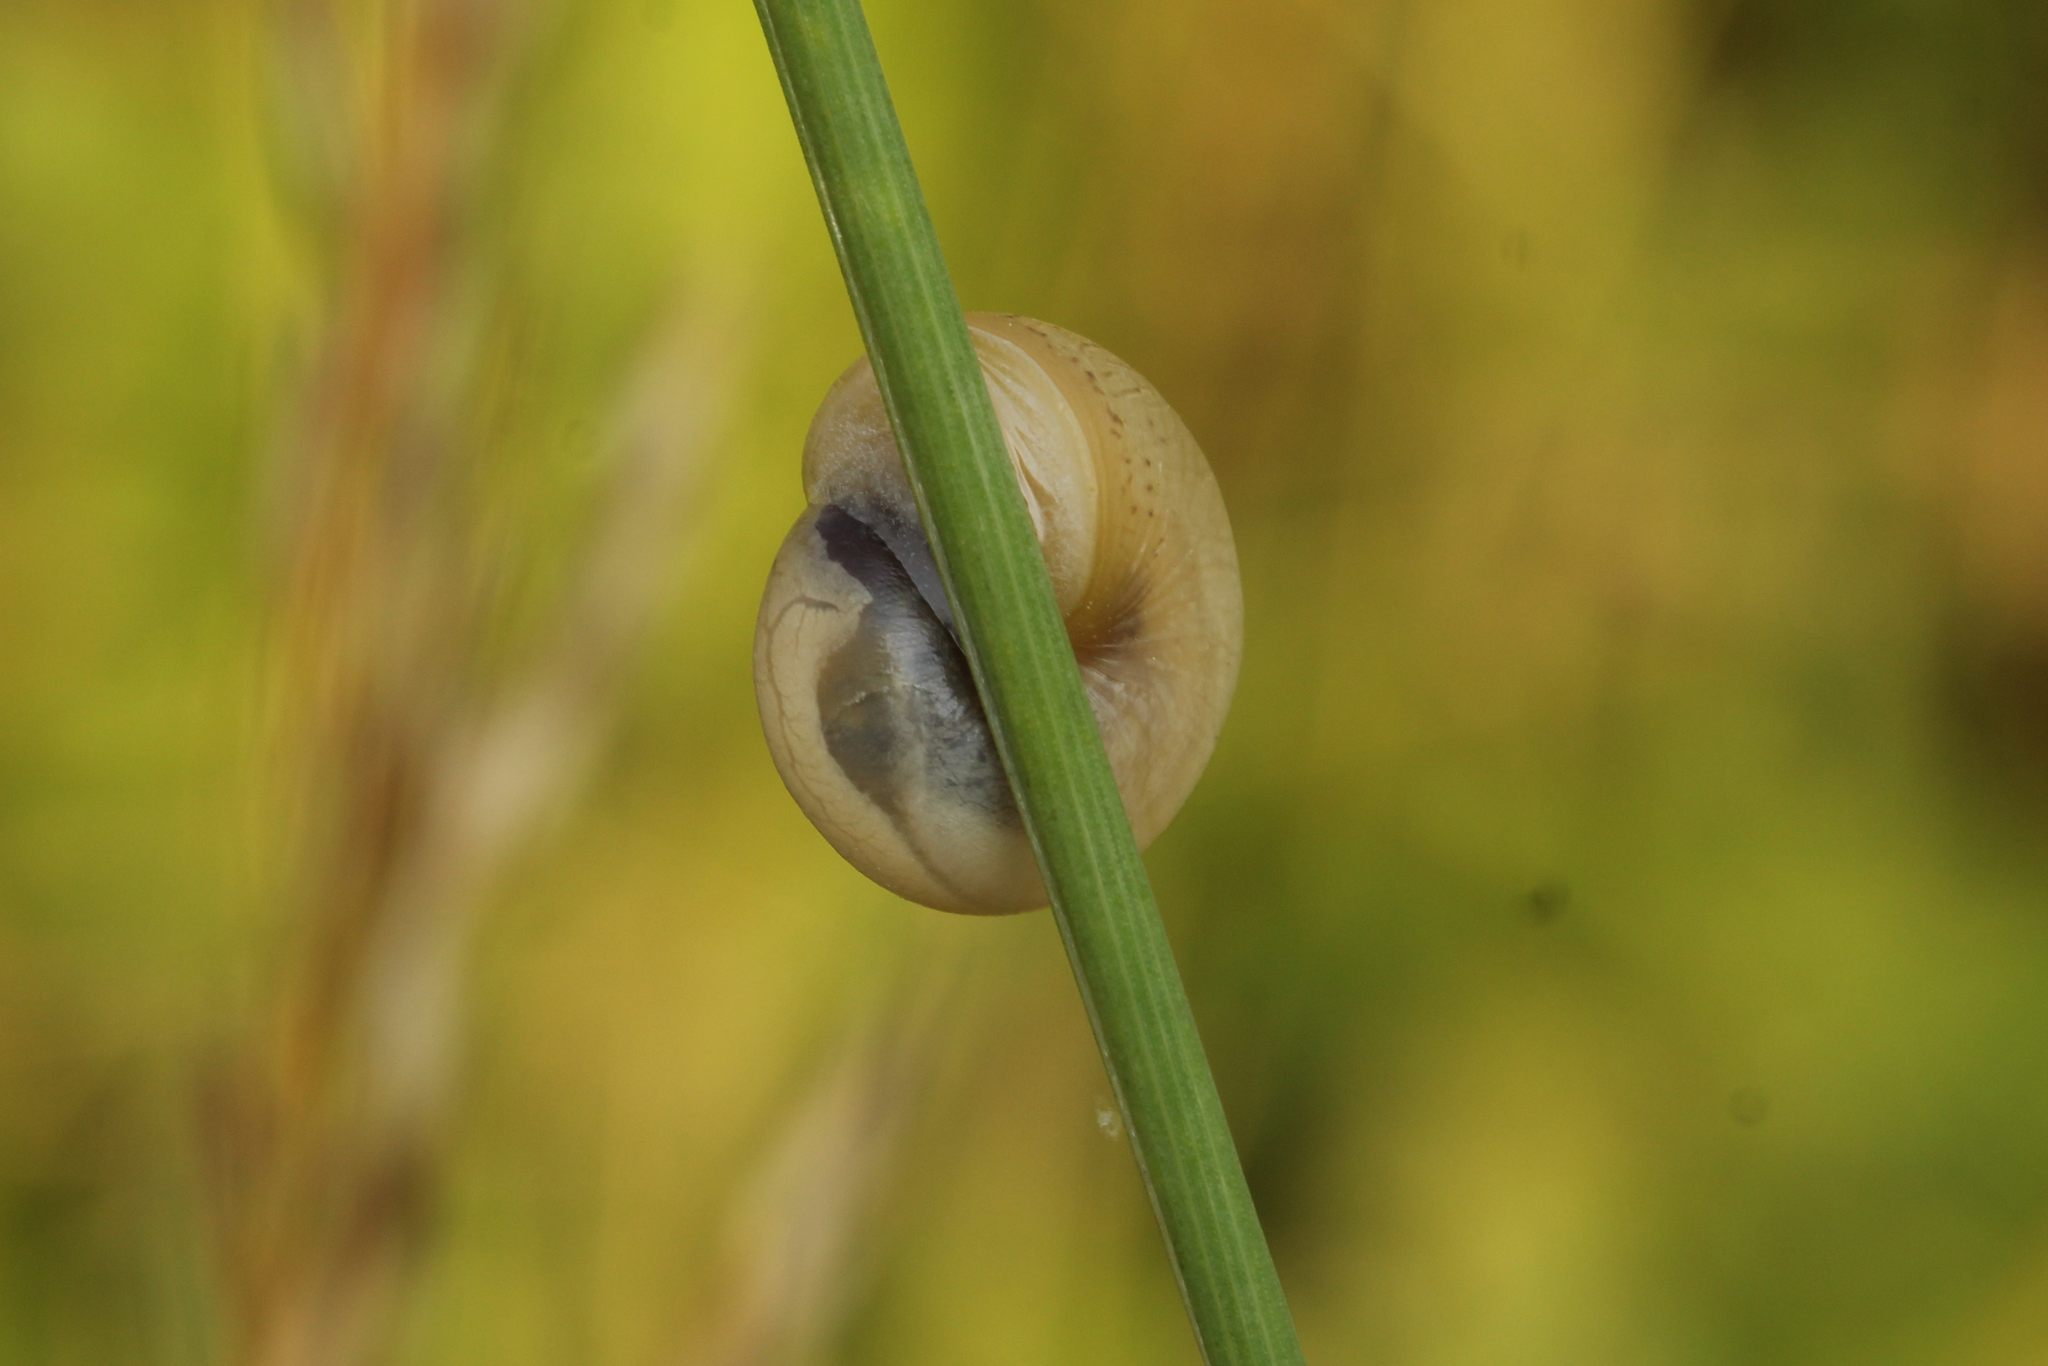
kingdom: Animalia
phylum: Mollusca
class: Gastropoda
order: Stylommatophora
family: Hygromiidae
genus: Monacha
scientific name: Monacha
